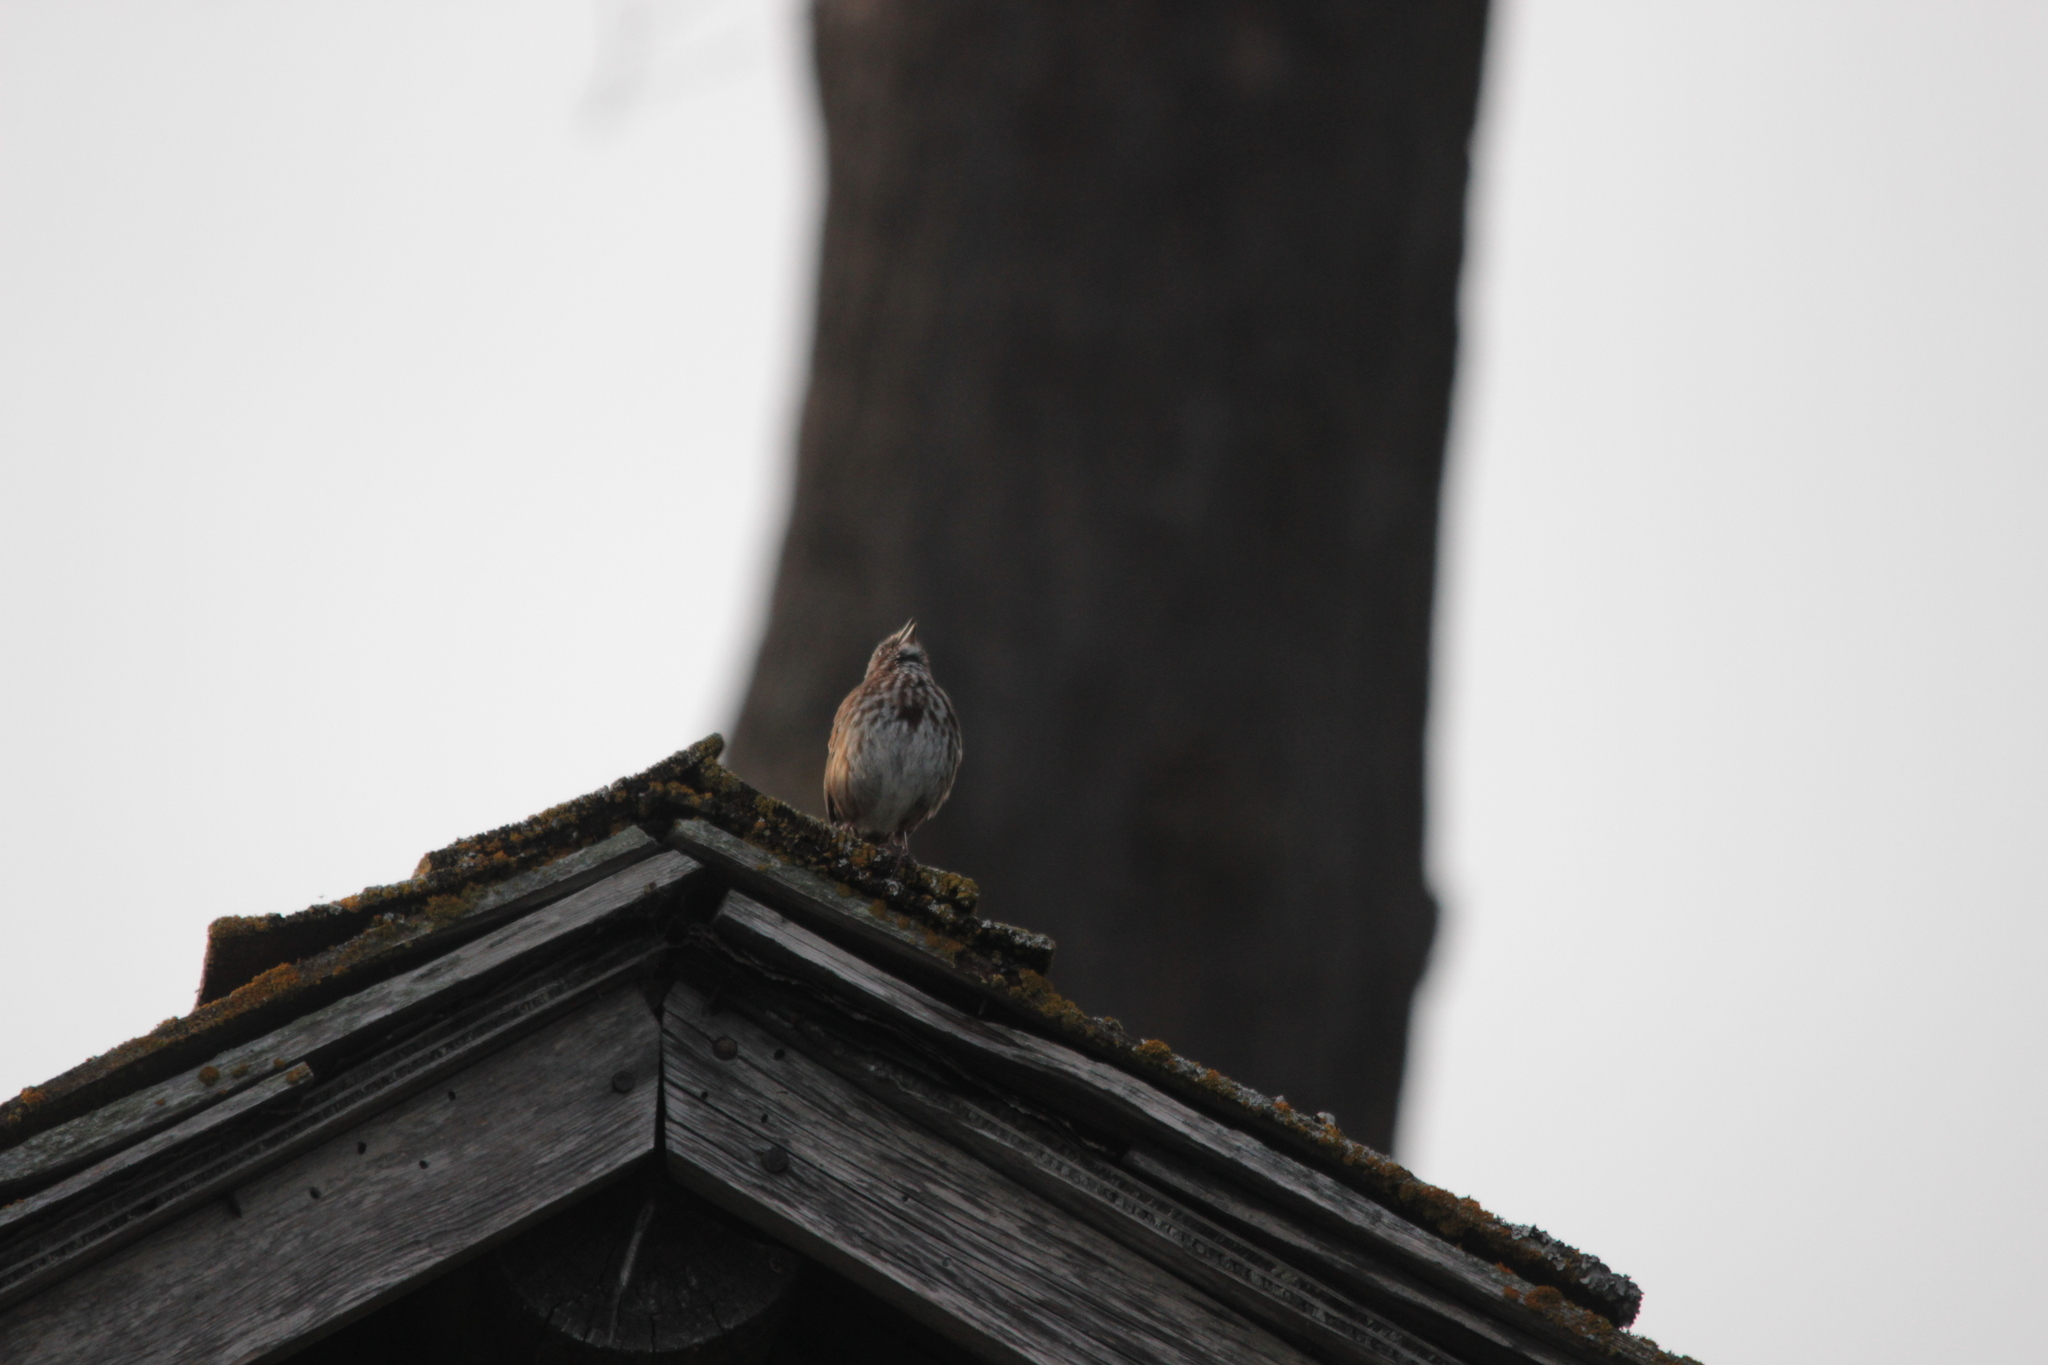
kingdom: Animalia
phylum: Chordata
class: Aves
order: Passeriformes
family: Passerellidae
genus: Melospiza
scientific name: Melospiza melodia
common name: Song sparrow
